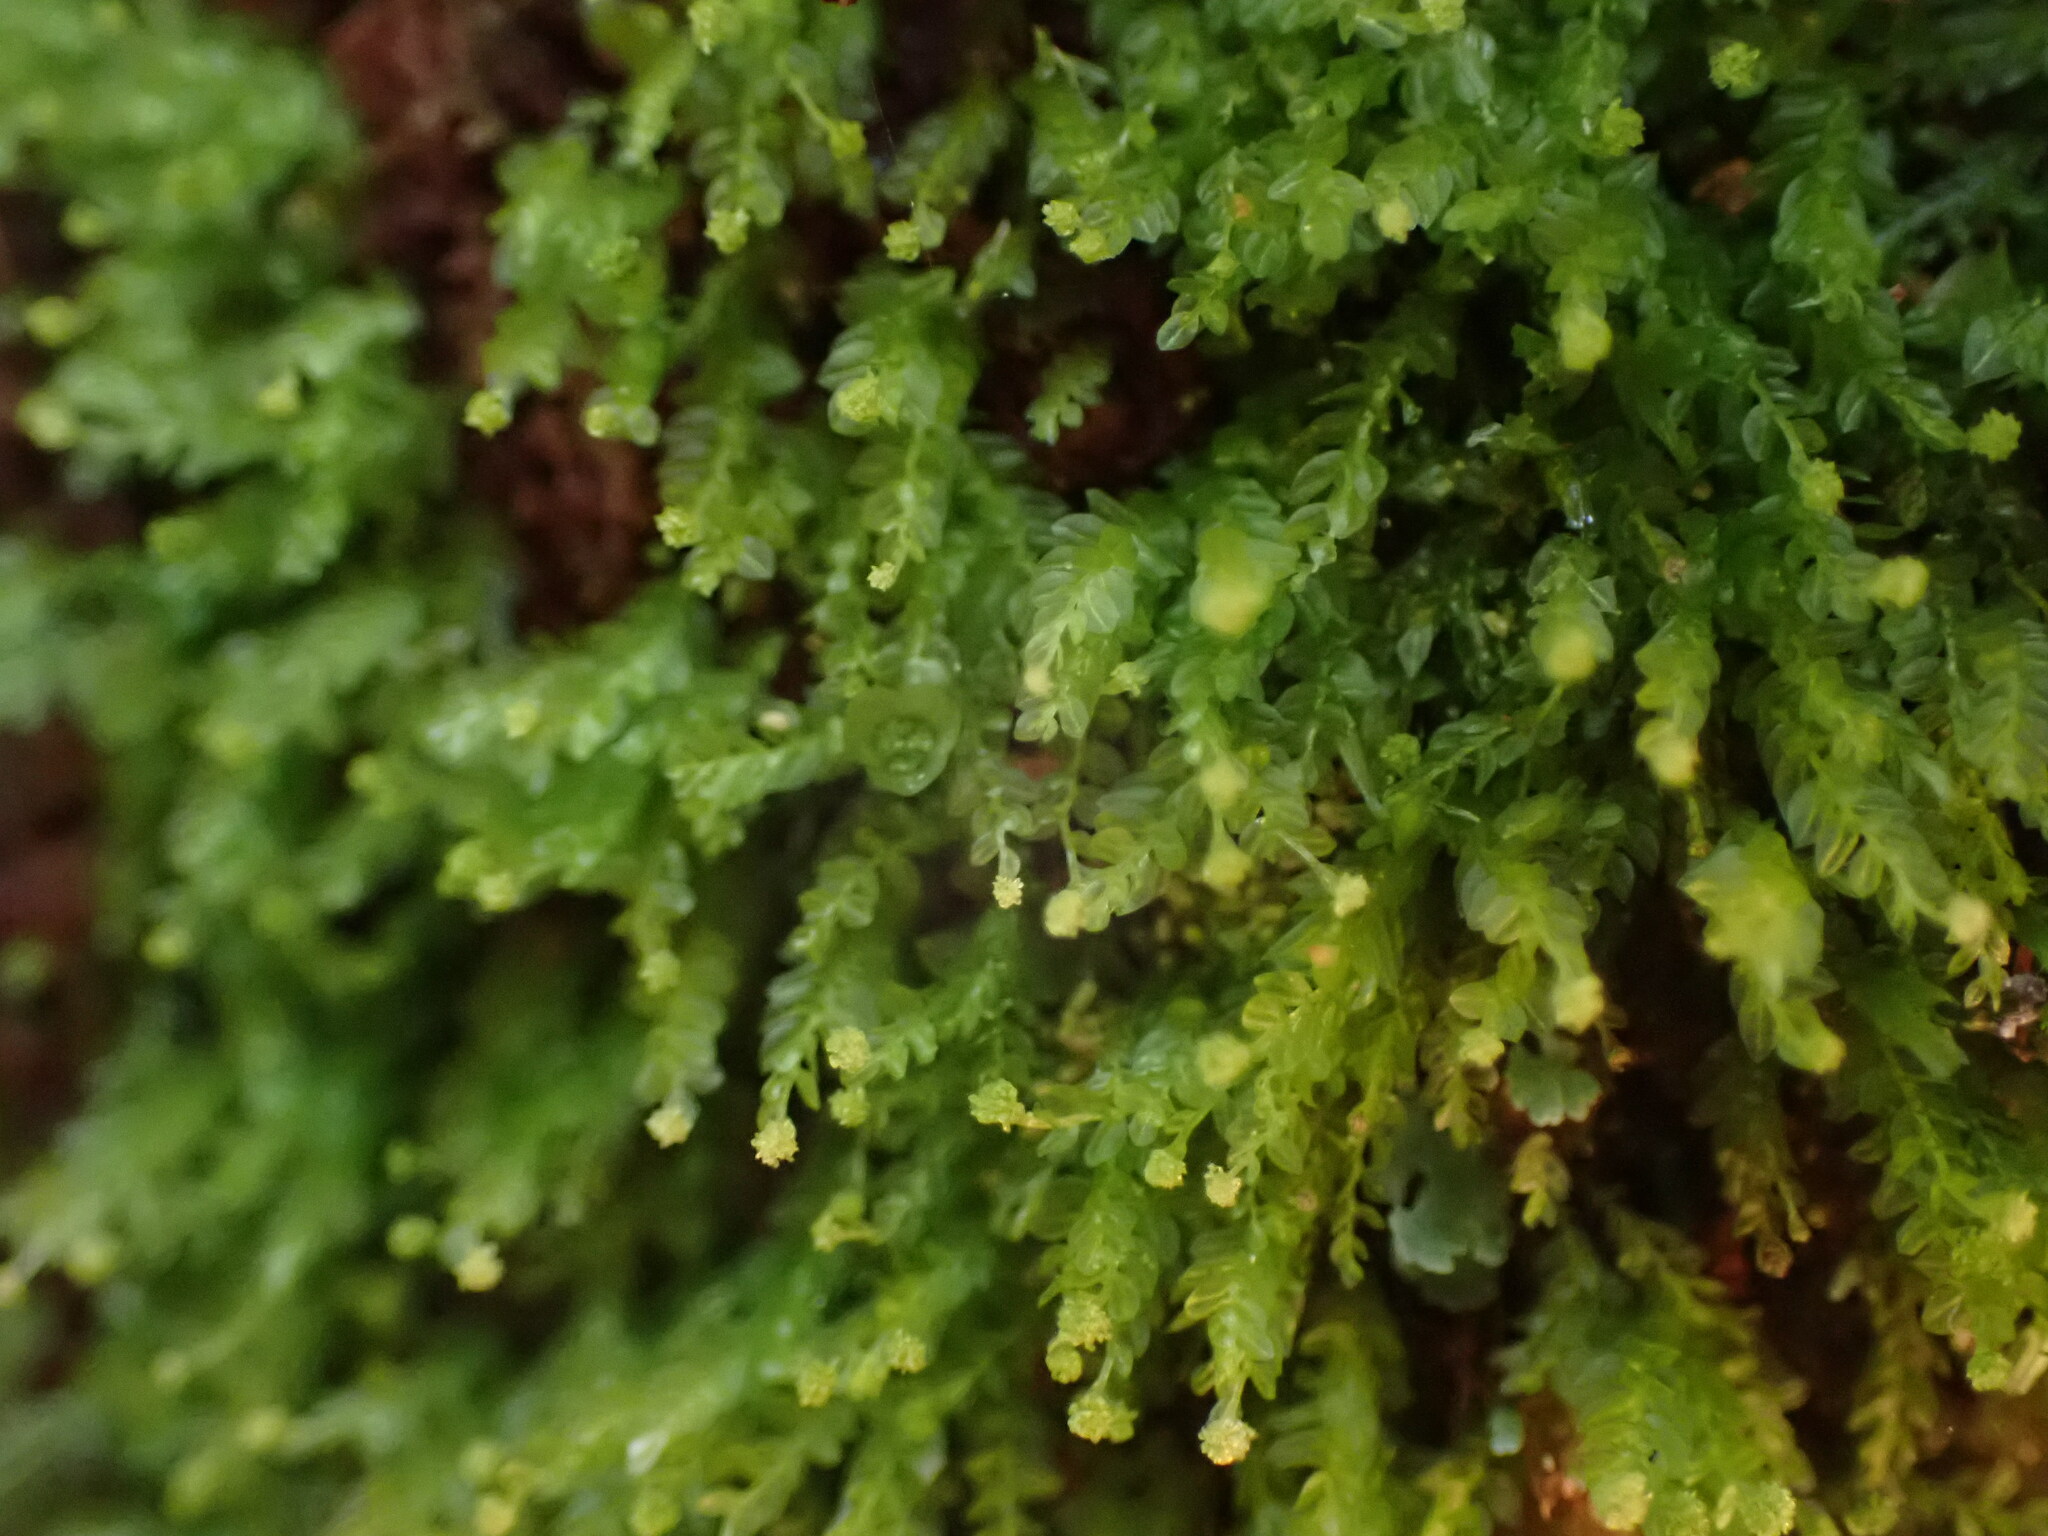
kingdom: Plantae
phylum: Bryophyta
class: Polytrichopsida
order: Tetraphidales
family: Tetraphidaceae
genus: Tetraphis
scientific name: Tetraphis pellucida
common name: Common four-toothed moss
